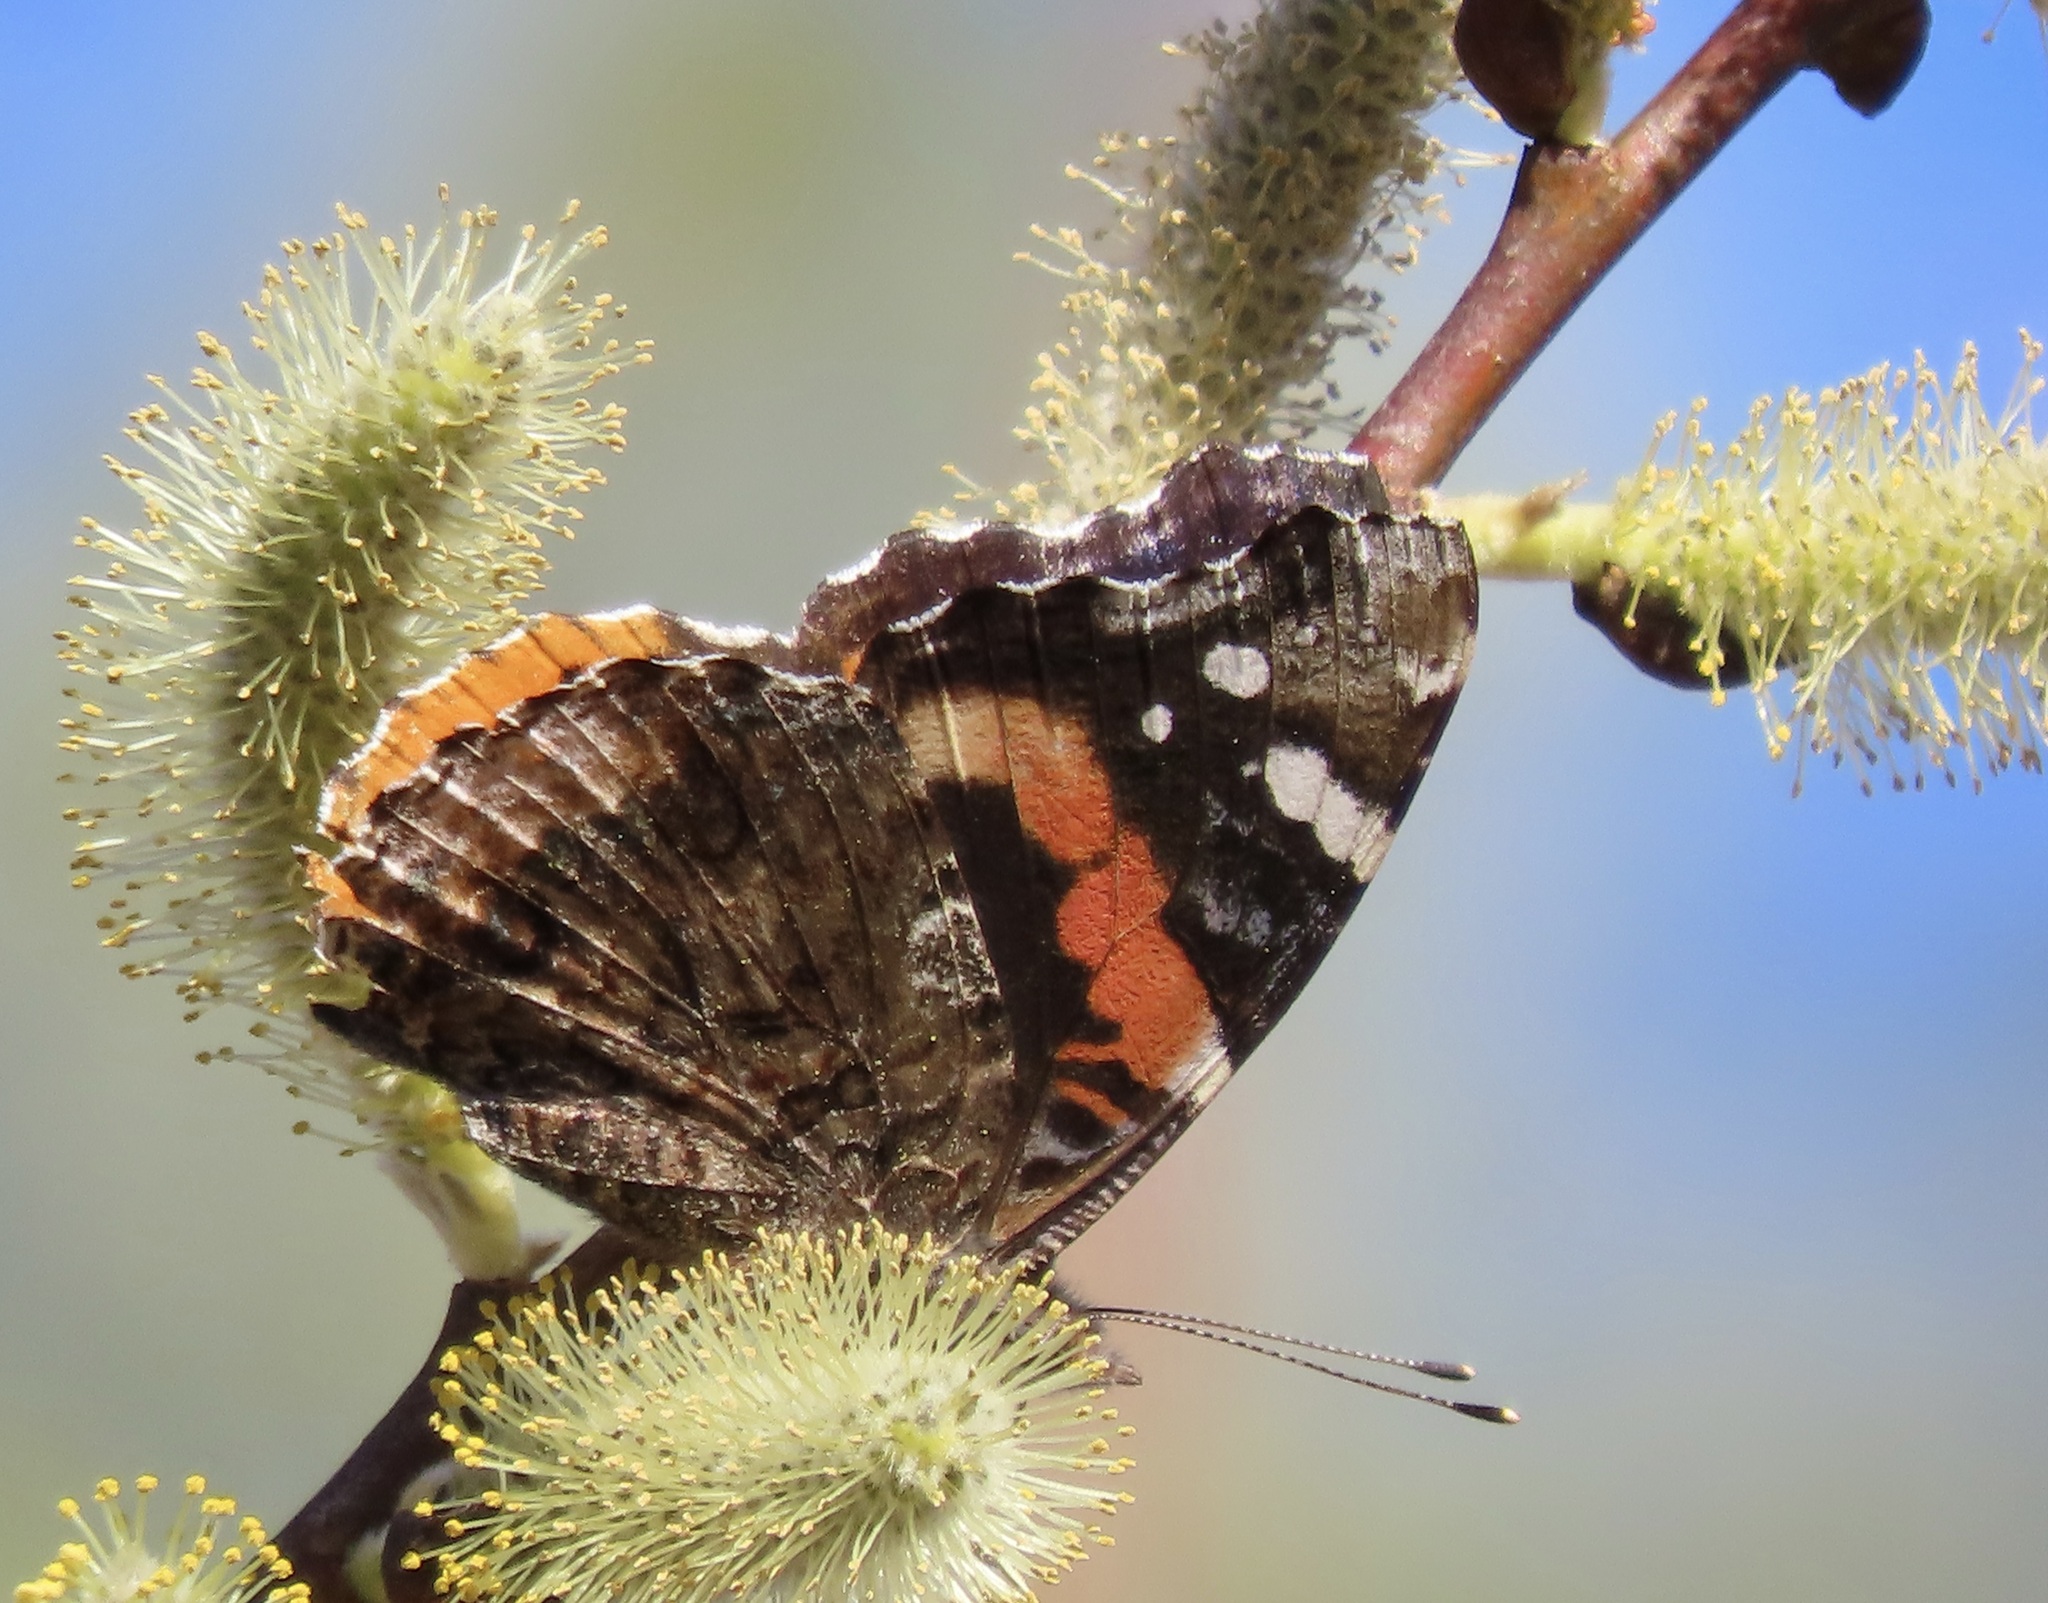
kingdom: Animalia
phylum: Arthropoda
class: Insecta
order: Lepidoptera
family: Nymphalidae
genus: Vanessa
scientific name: Vanessa atalanta
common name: Red admiral
